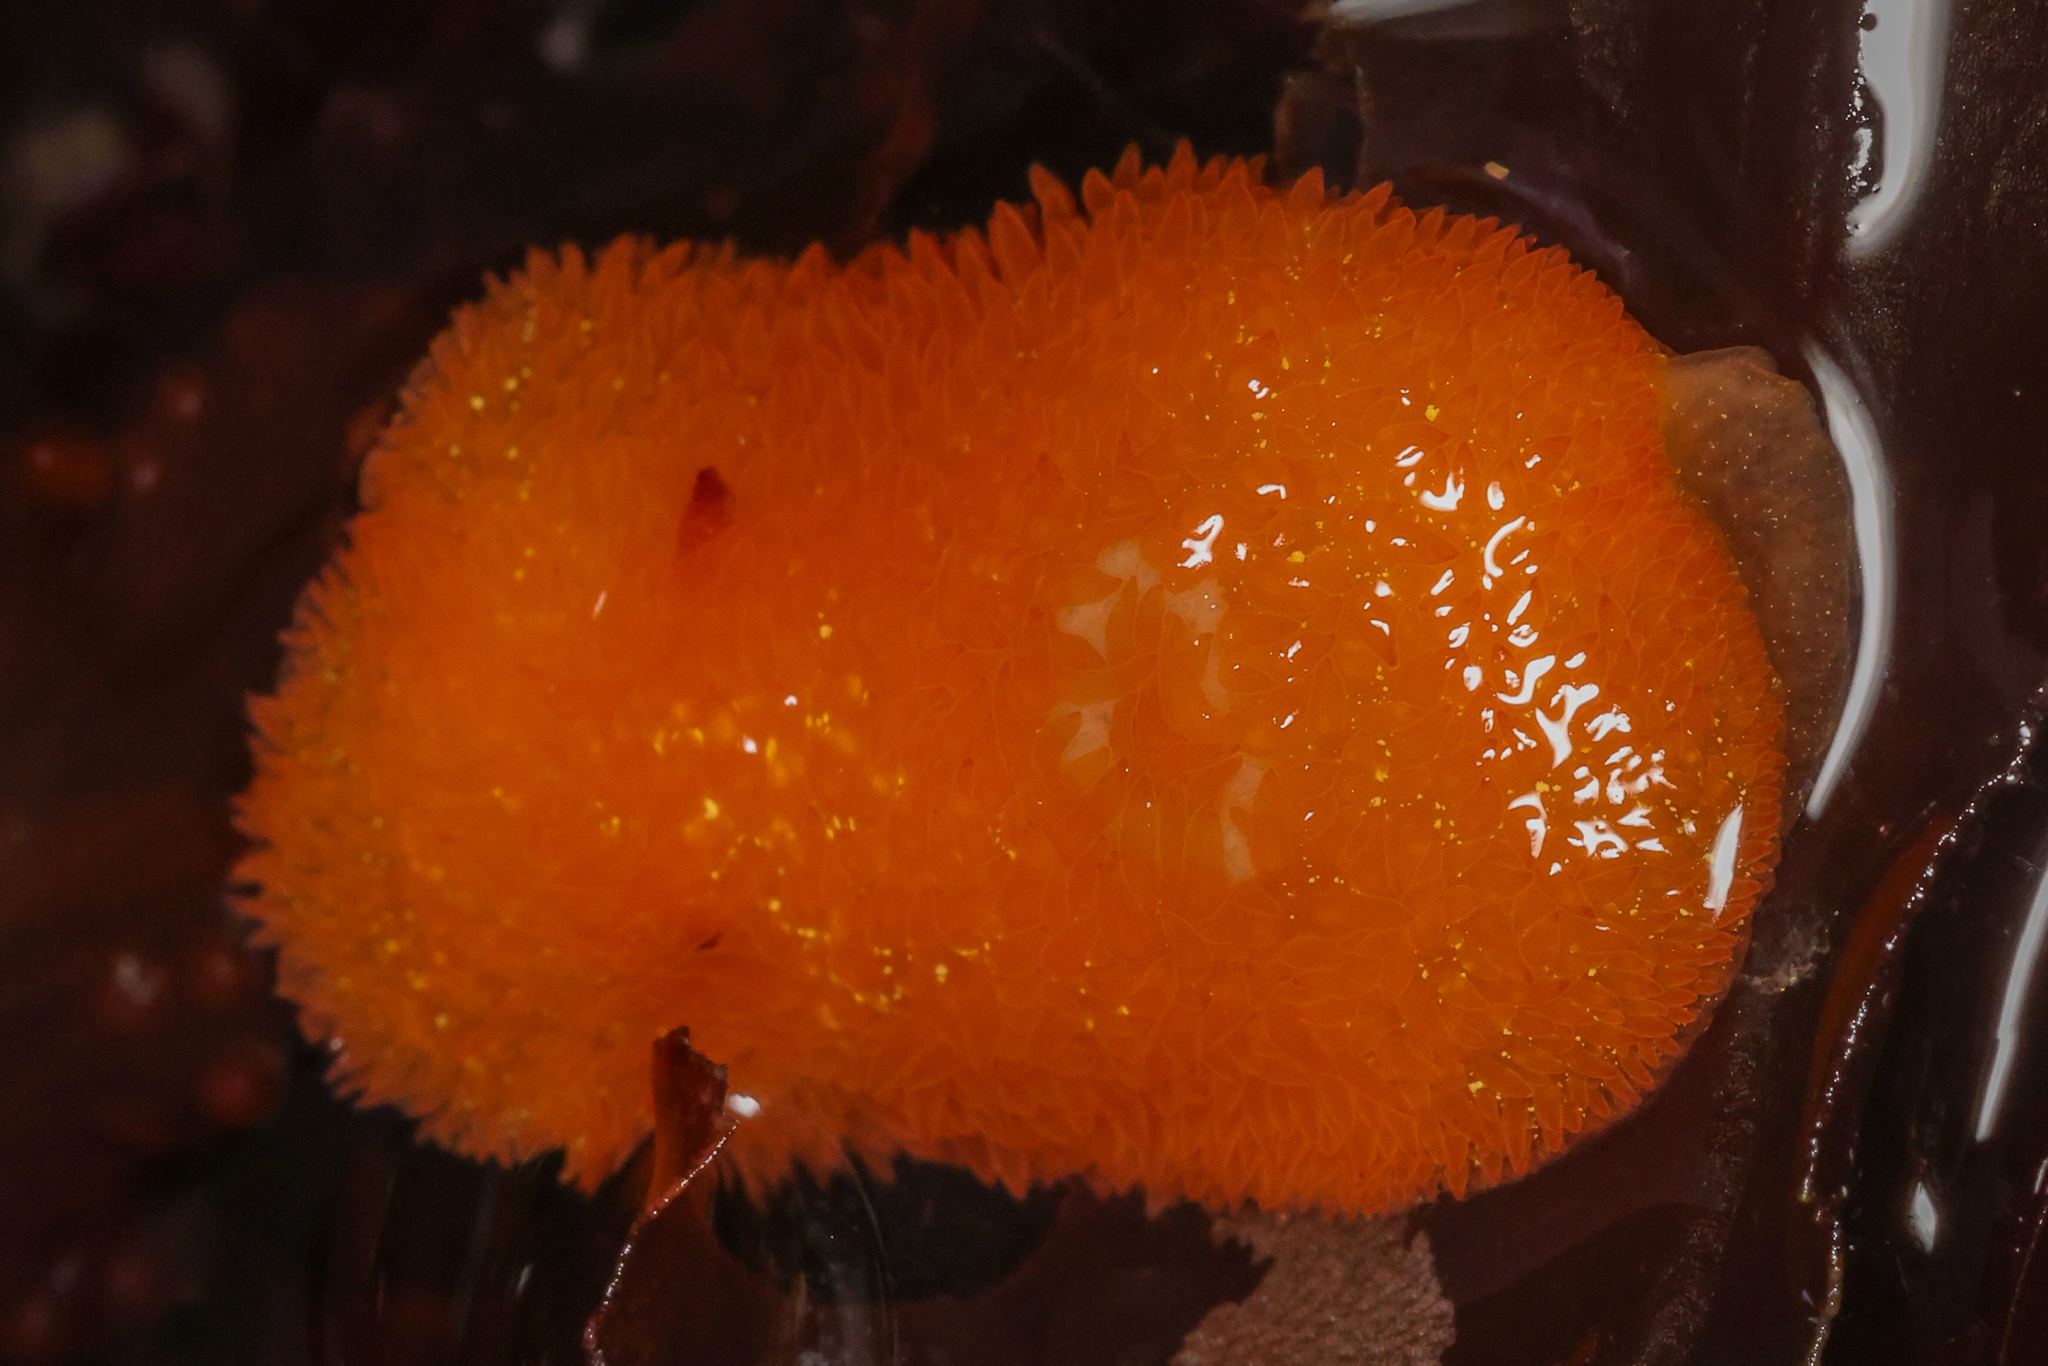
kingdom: Animalia
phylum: Mollusca
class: Gastropoda
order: Nudibranchia
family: Onchidorididae
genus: Acanthodoris
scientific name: Acanthodoris lutea
